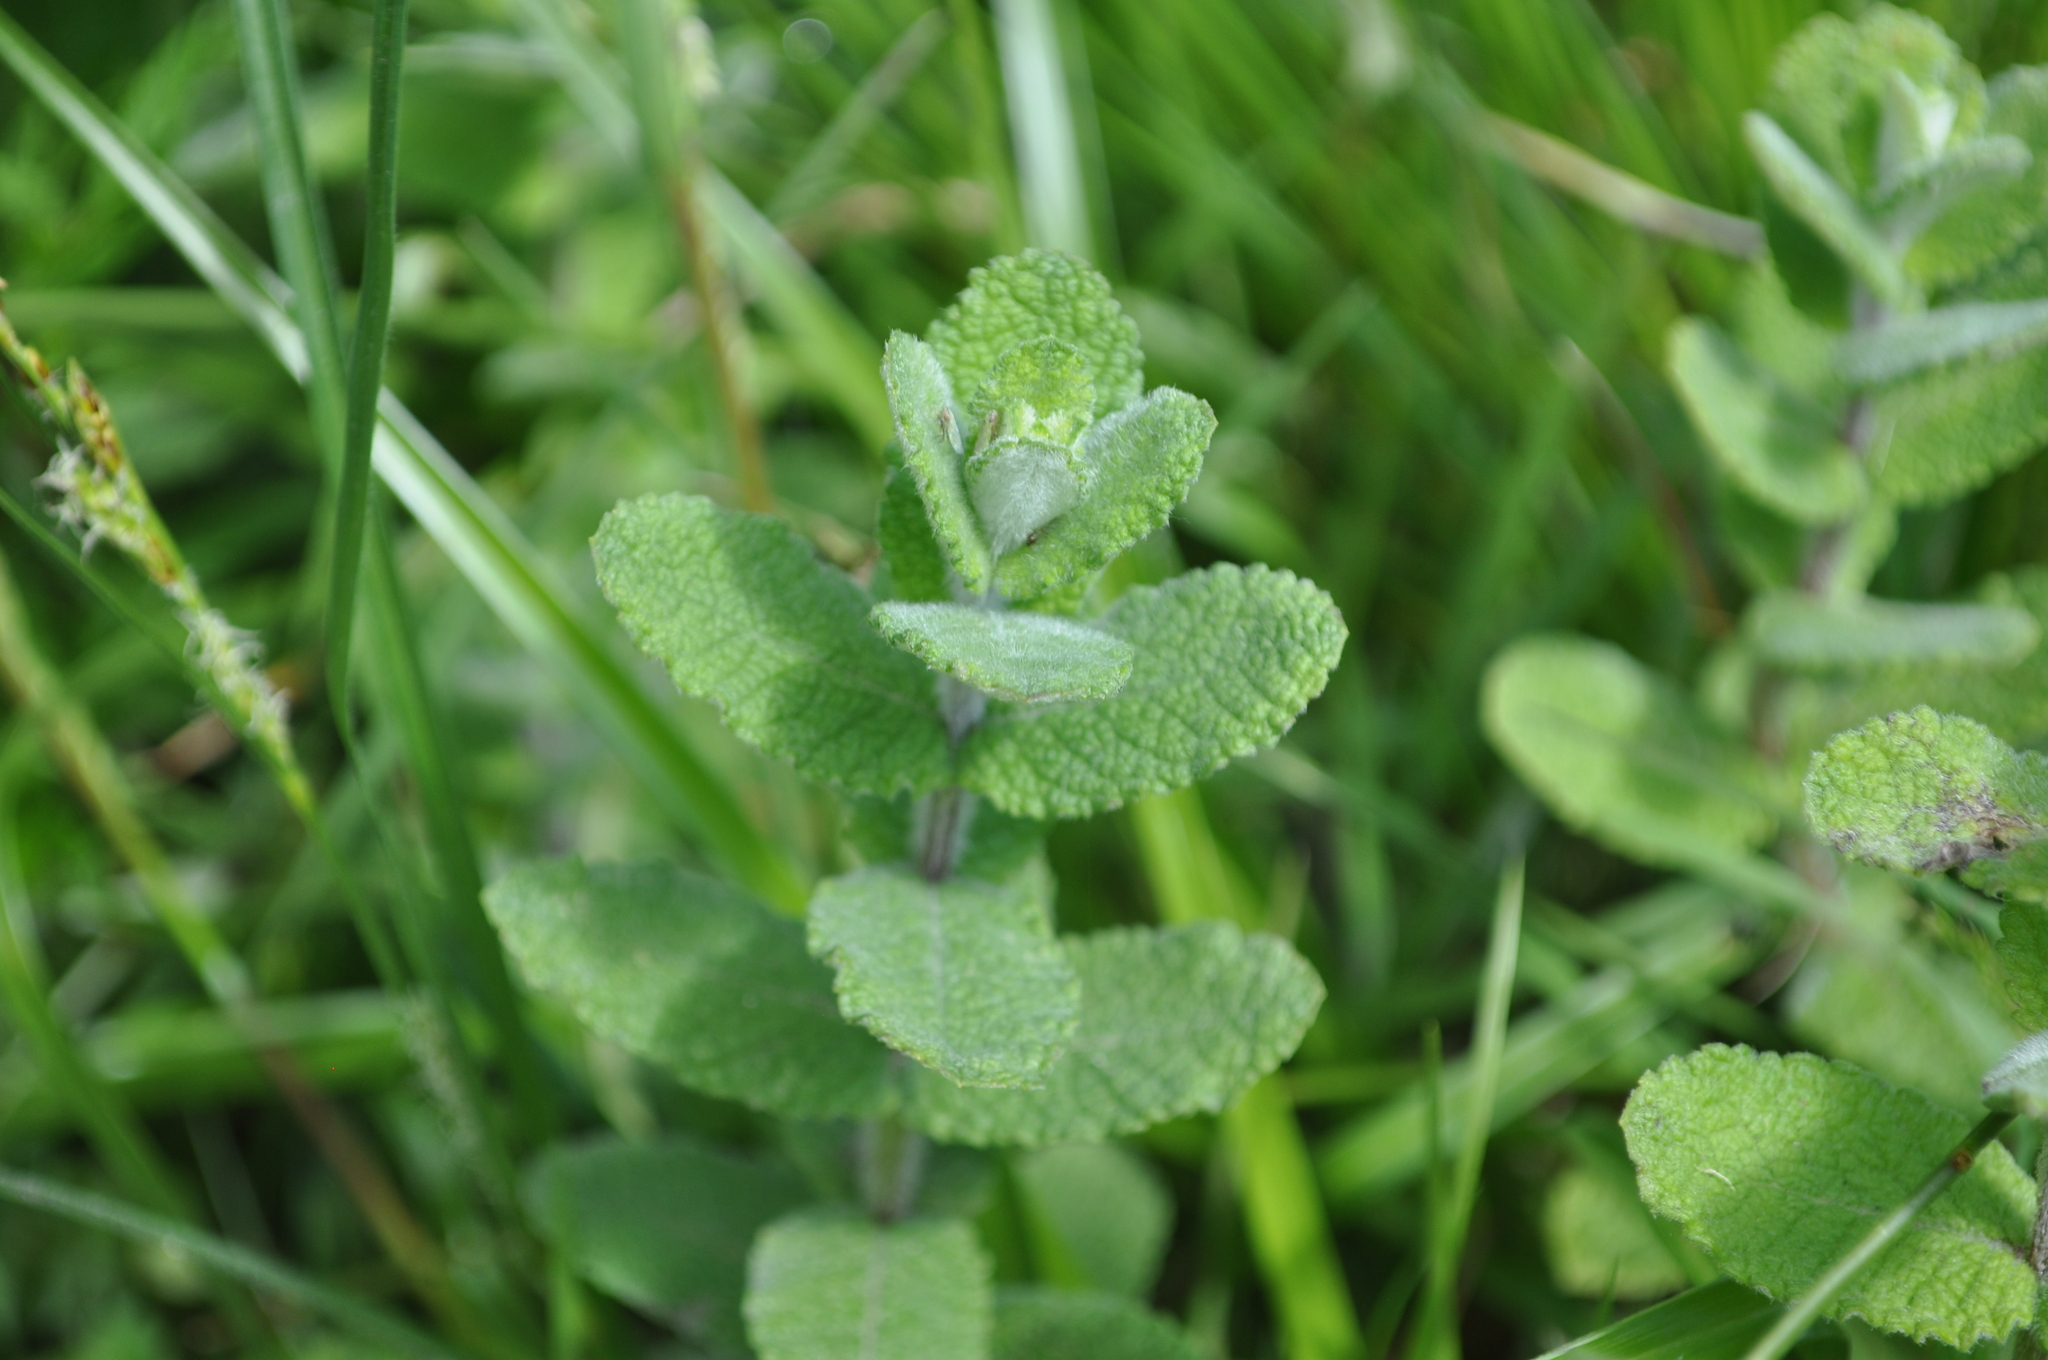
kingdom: Plantae
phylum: Tracheophyta
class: Magnoliopsida
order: Lamiales
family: Lamiaceae
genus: Mentha
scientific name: Mentha suaveolens
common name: Apple mint
